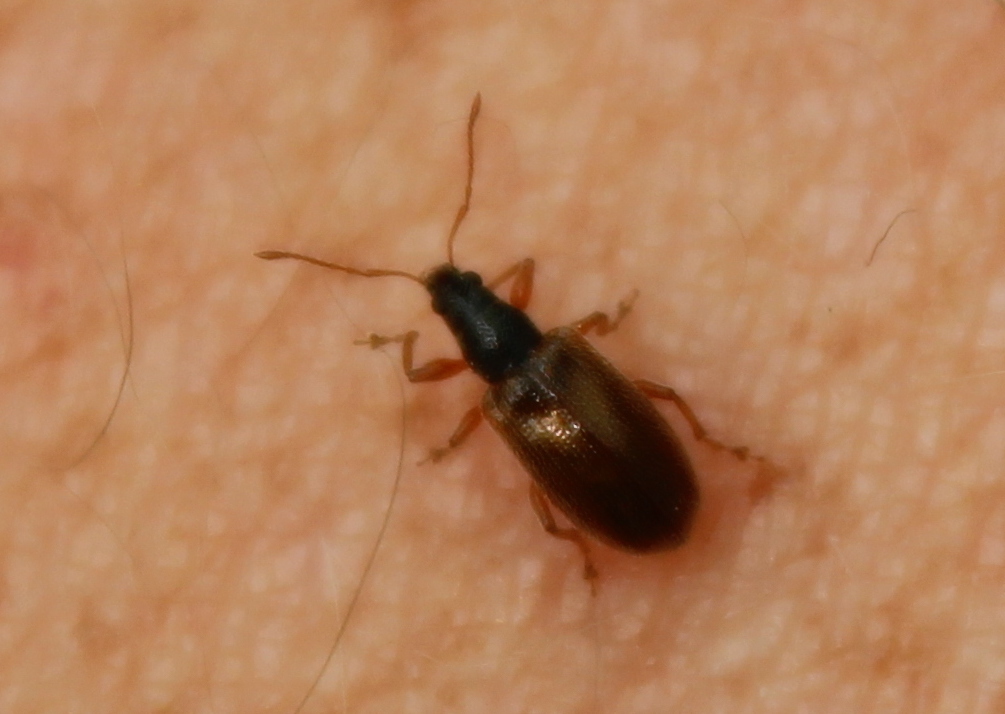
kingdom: Animalia
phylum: Arthropoda
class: Insecta
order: Coleoptera
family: Curculionidae
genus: Phyllobius
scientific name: Phyllobius oblongus
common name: Brown leaf weevil
